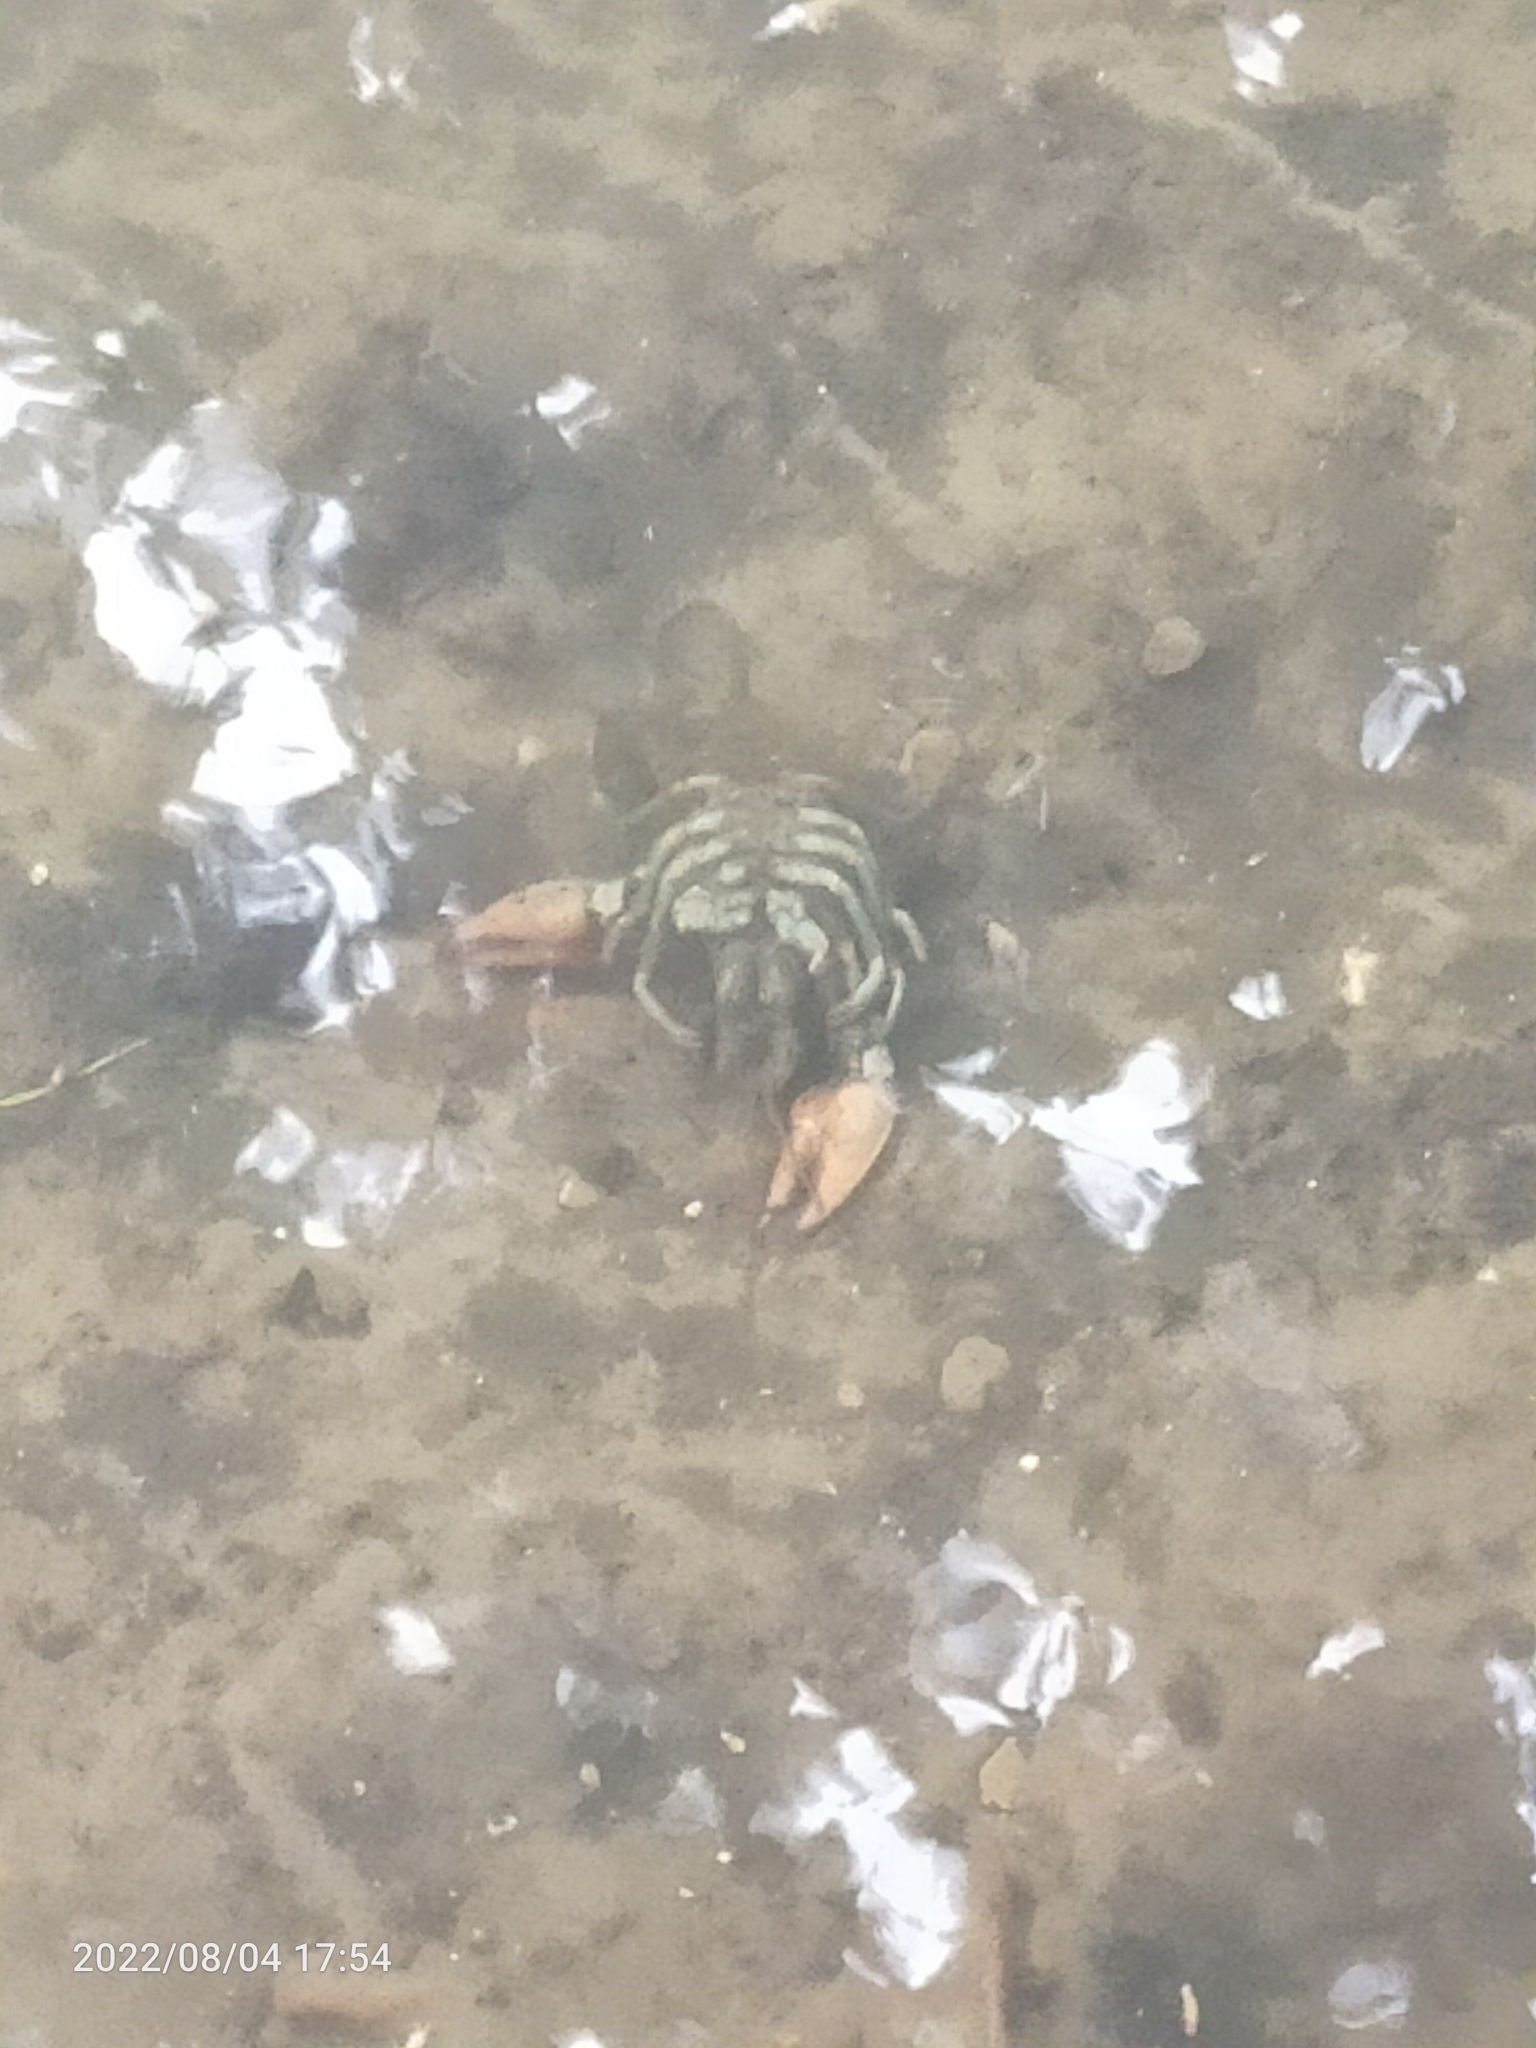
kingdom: Animalia
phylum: Arthropoda
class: Malacostraca
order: Decapoda
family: Astacidae
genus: Pacifastacus
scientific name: Pacifastacus leniusculus
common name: Signal crayfish
